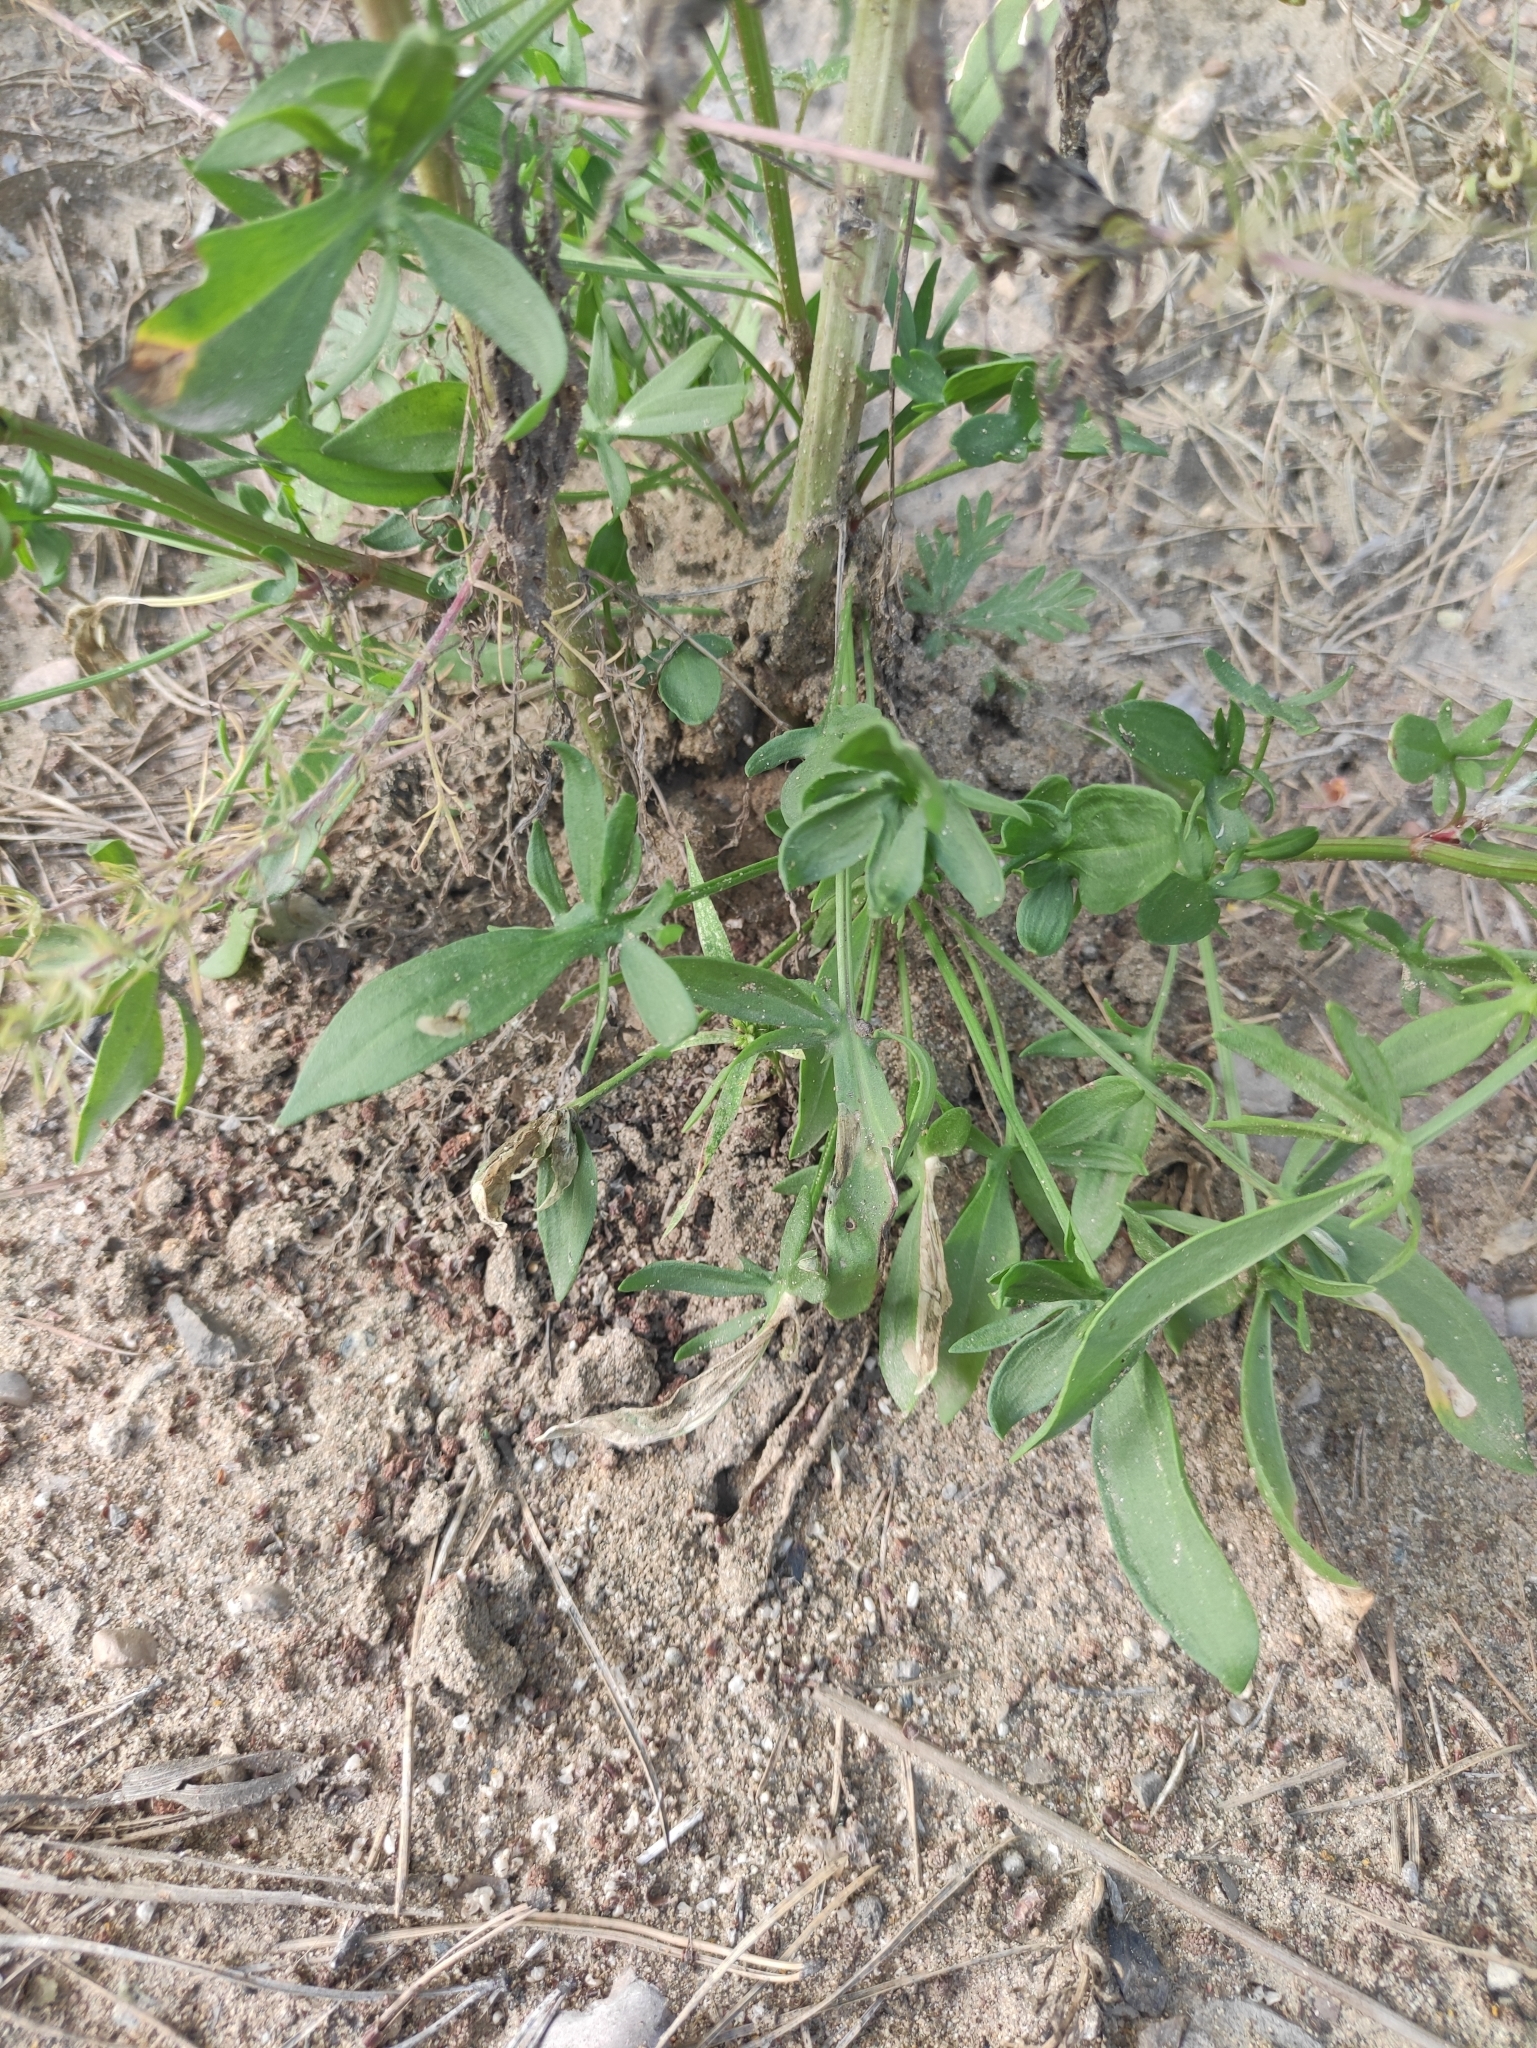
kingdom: Plantae
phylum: Tracheophyta
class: Magnoliopsida
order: Caryophyllales
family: Polygonaceae
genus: Rumex
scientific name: Rumex acetosella
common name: Common sheep sorrel
